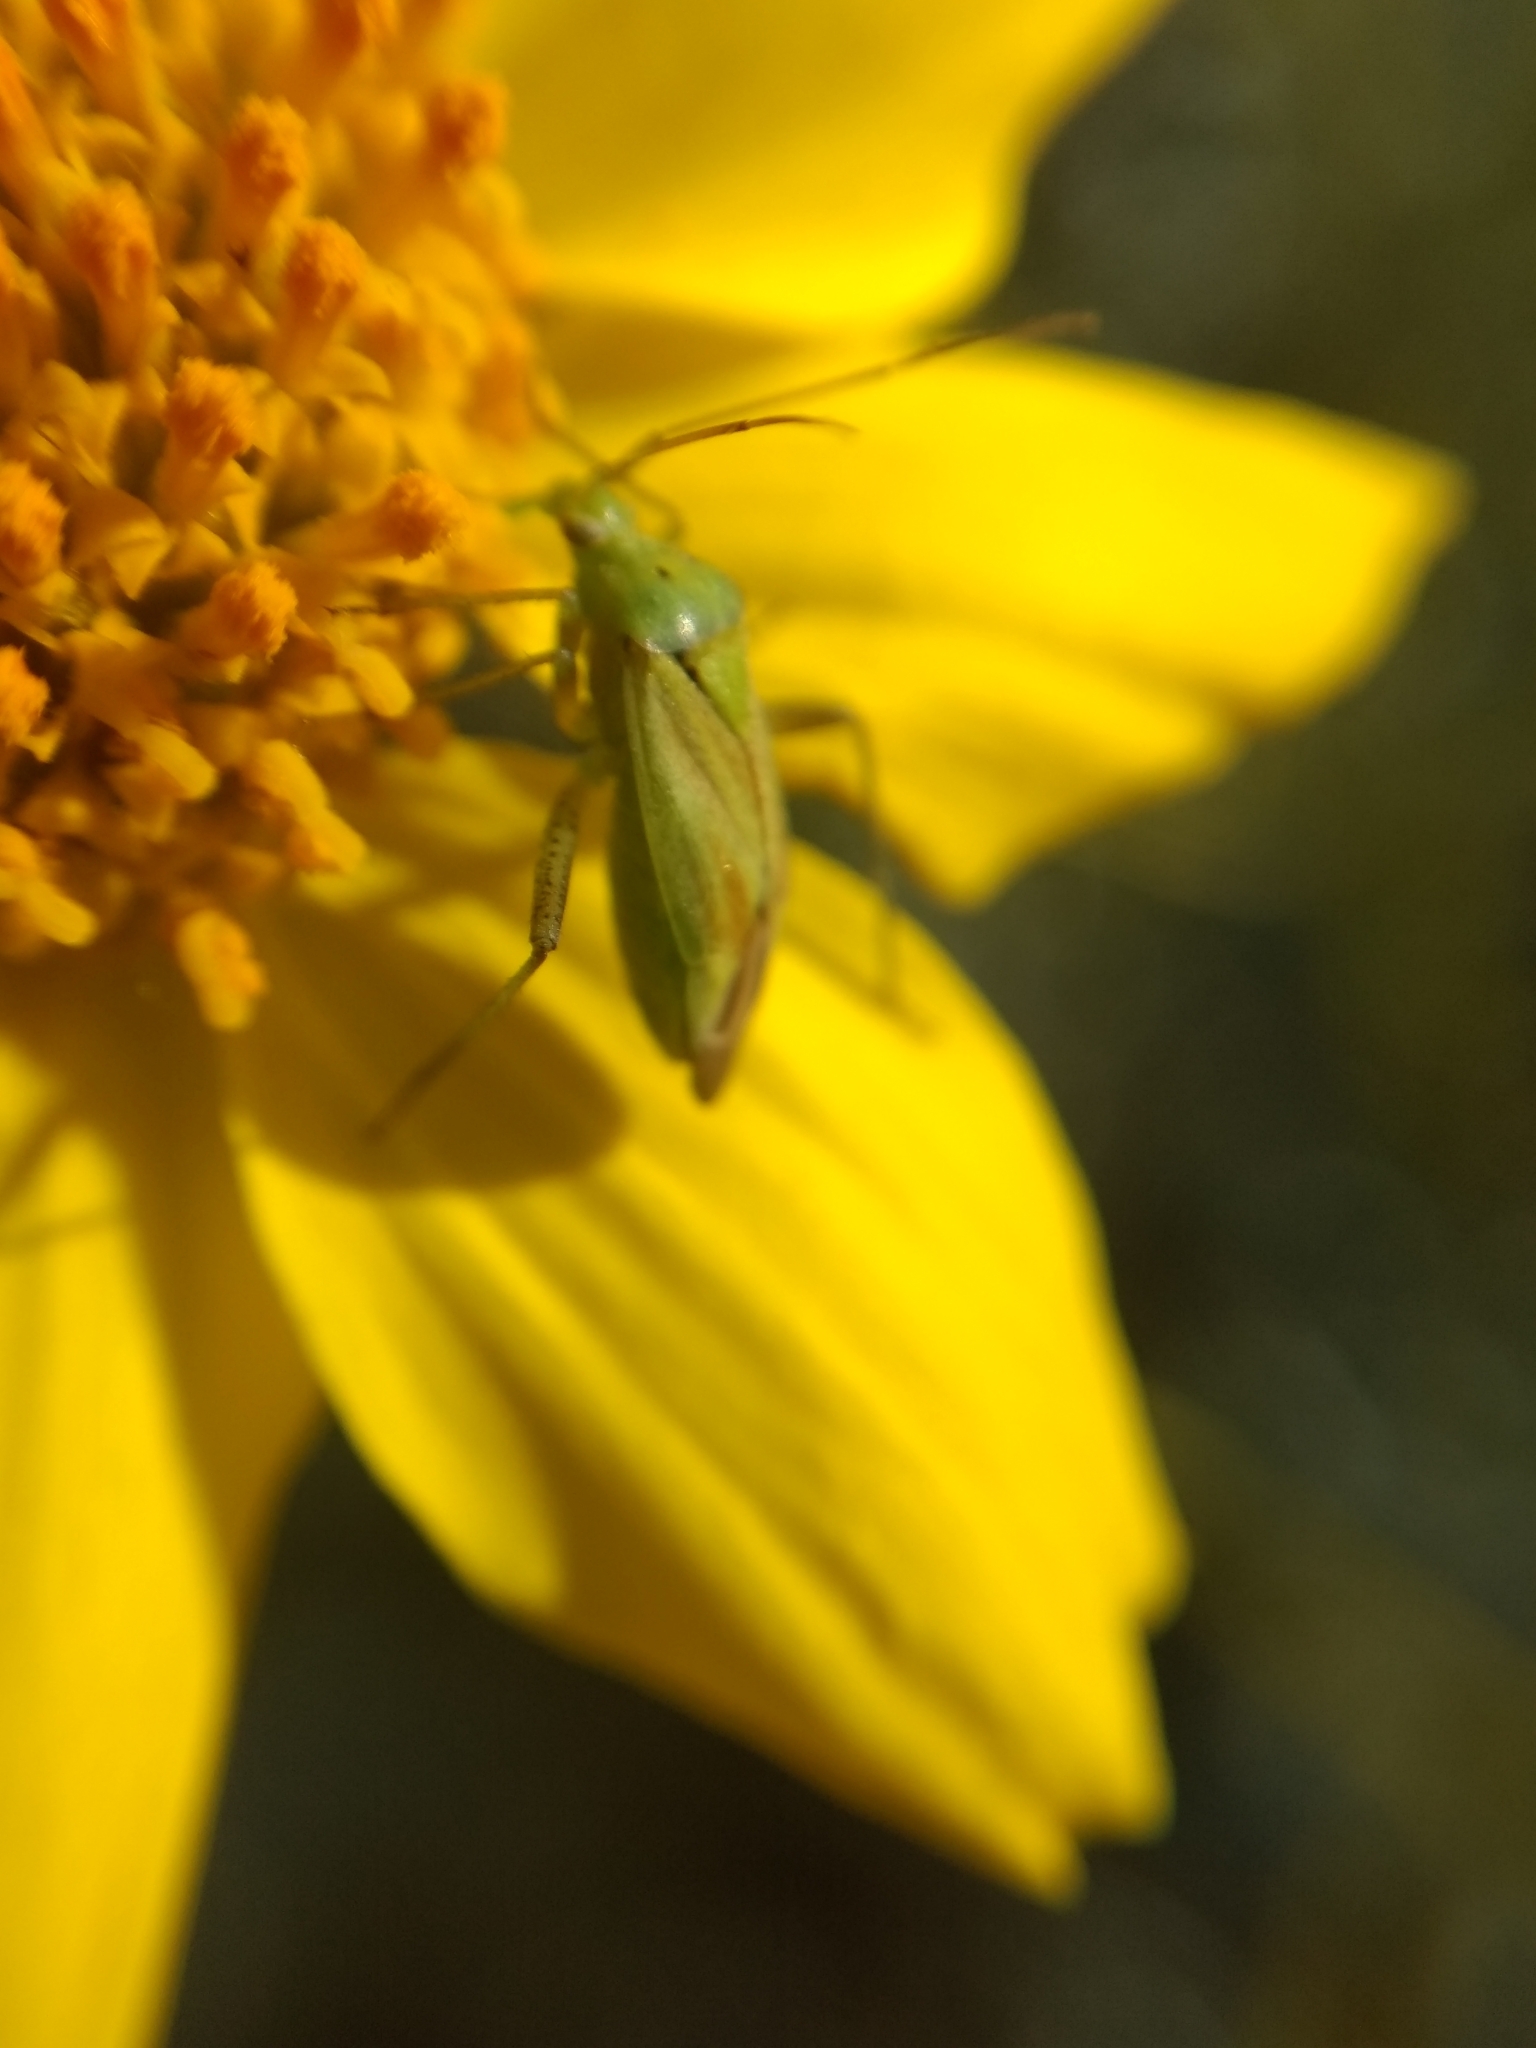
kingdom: Animalia
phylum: Arthropoda
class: Insecta
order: Hemiptera
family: Miridae
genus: Closterotomus
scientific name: Closterotomus norvegicus
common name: Plant bug
